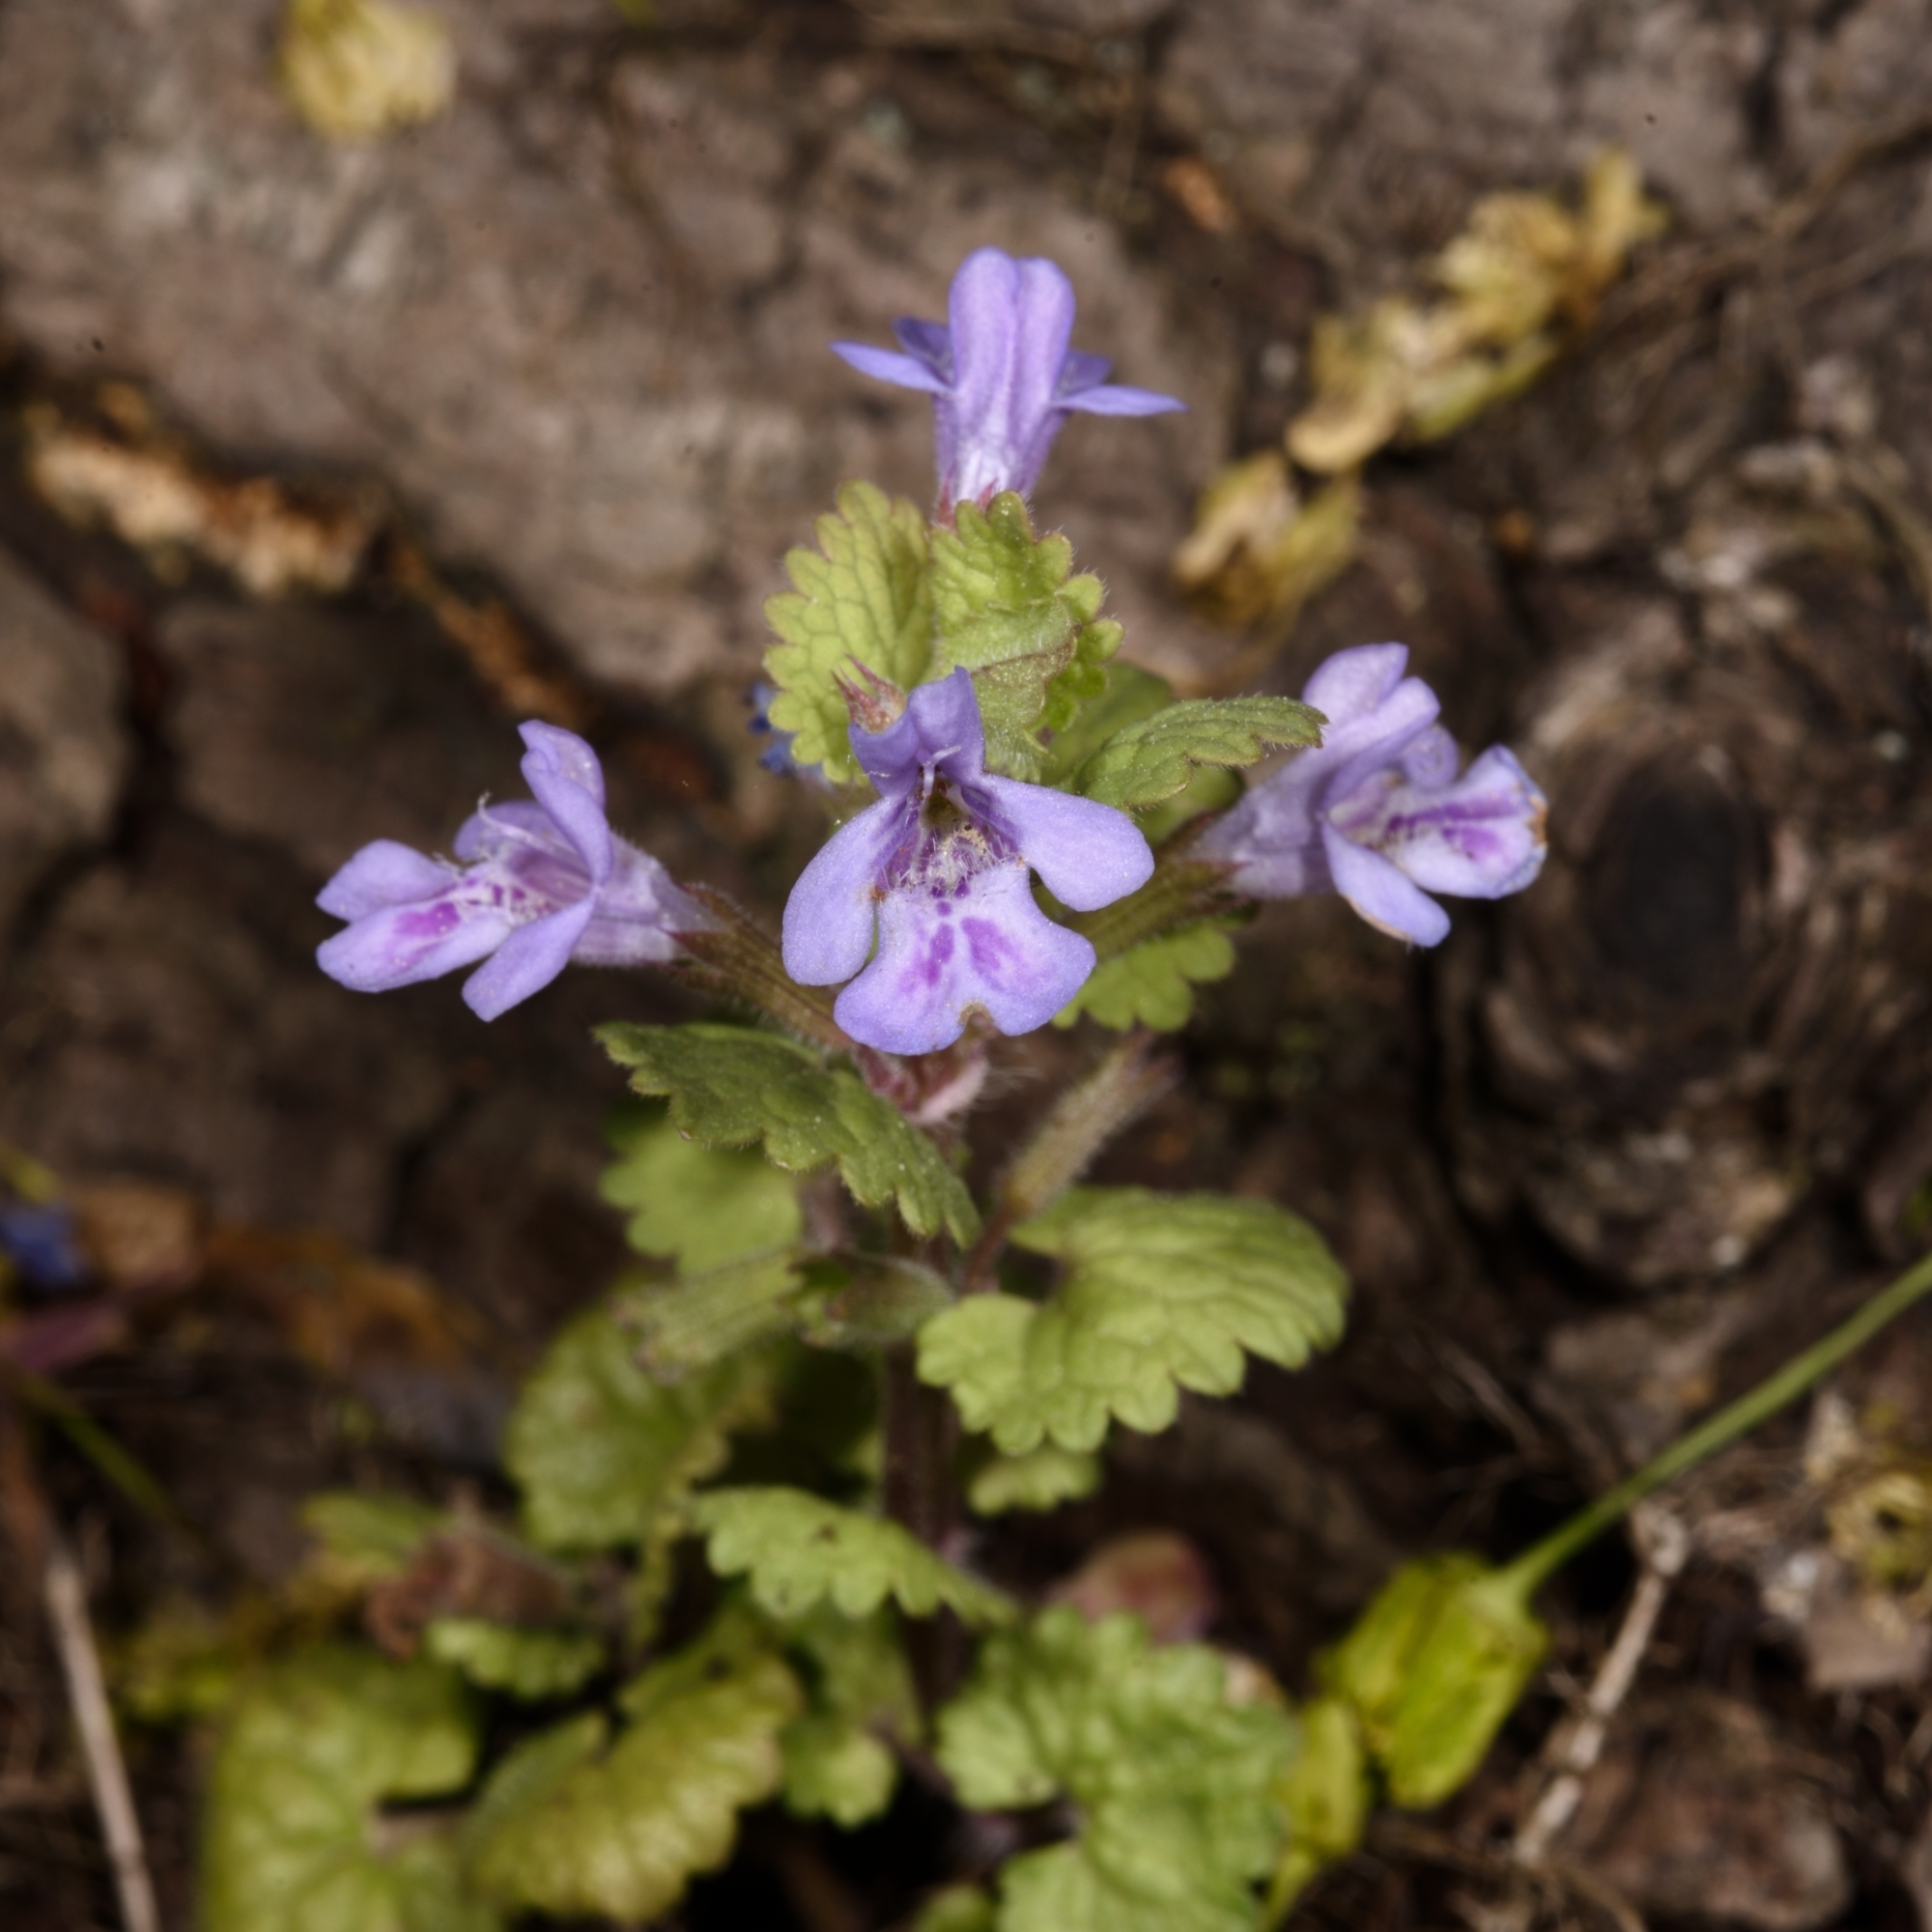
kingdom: Plantae
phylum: Tracheophyta
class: Magnoliopsida
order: Lamiales
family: Lamiaceae
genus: Glechoma
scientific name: Glechoma hederacea
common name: Ground ivy
